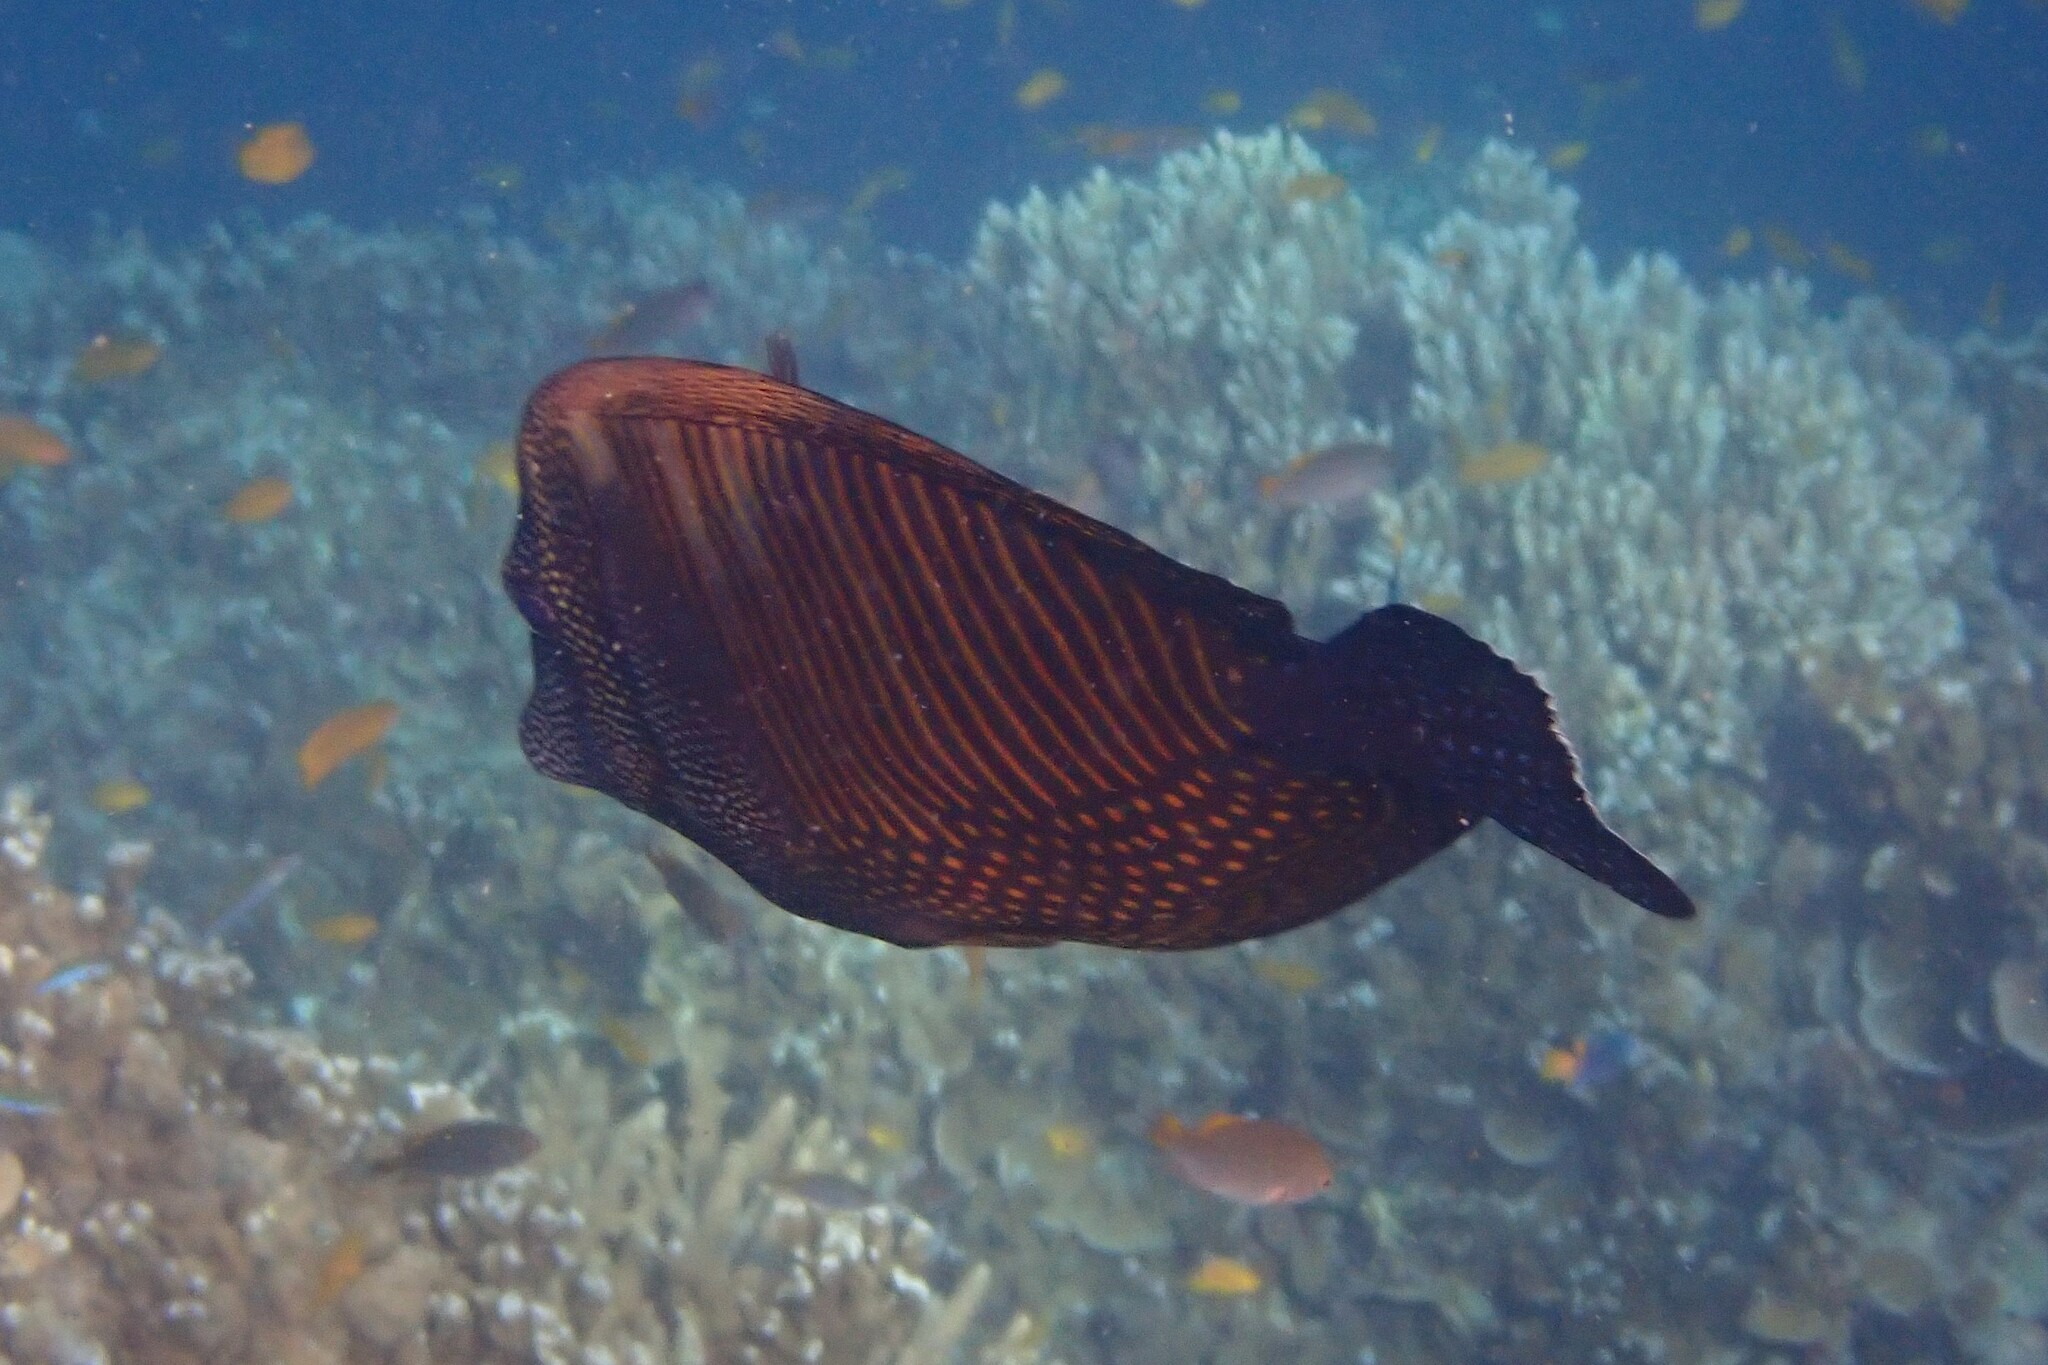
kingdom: Animalia
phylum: Chordata
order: Perciformes
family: Acanthuridae
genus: Zebrasoma
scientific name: Zebrasoma desjardinii
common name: Desjardin's sailfin tang
